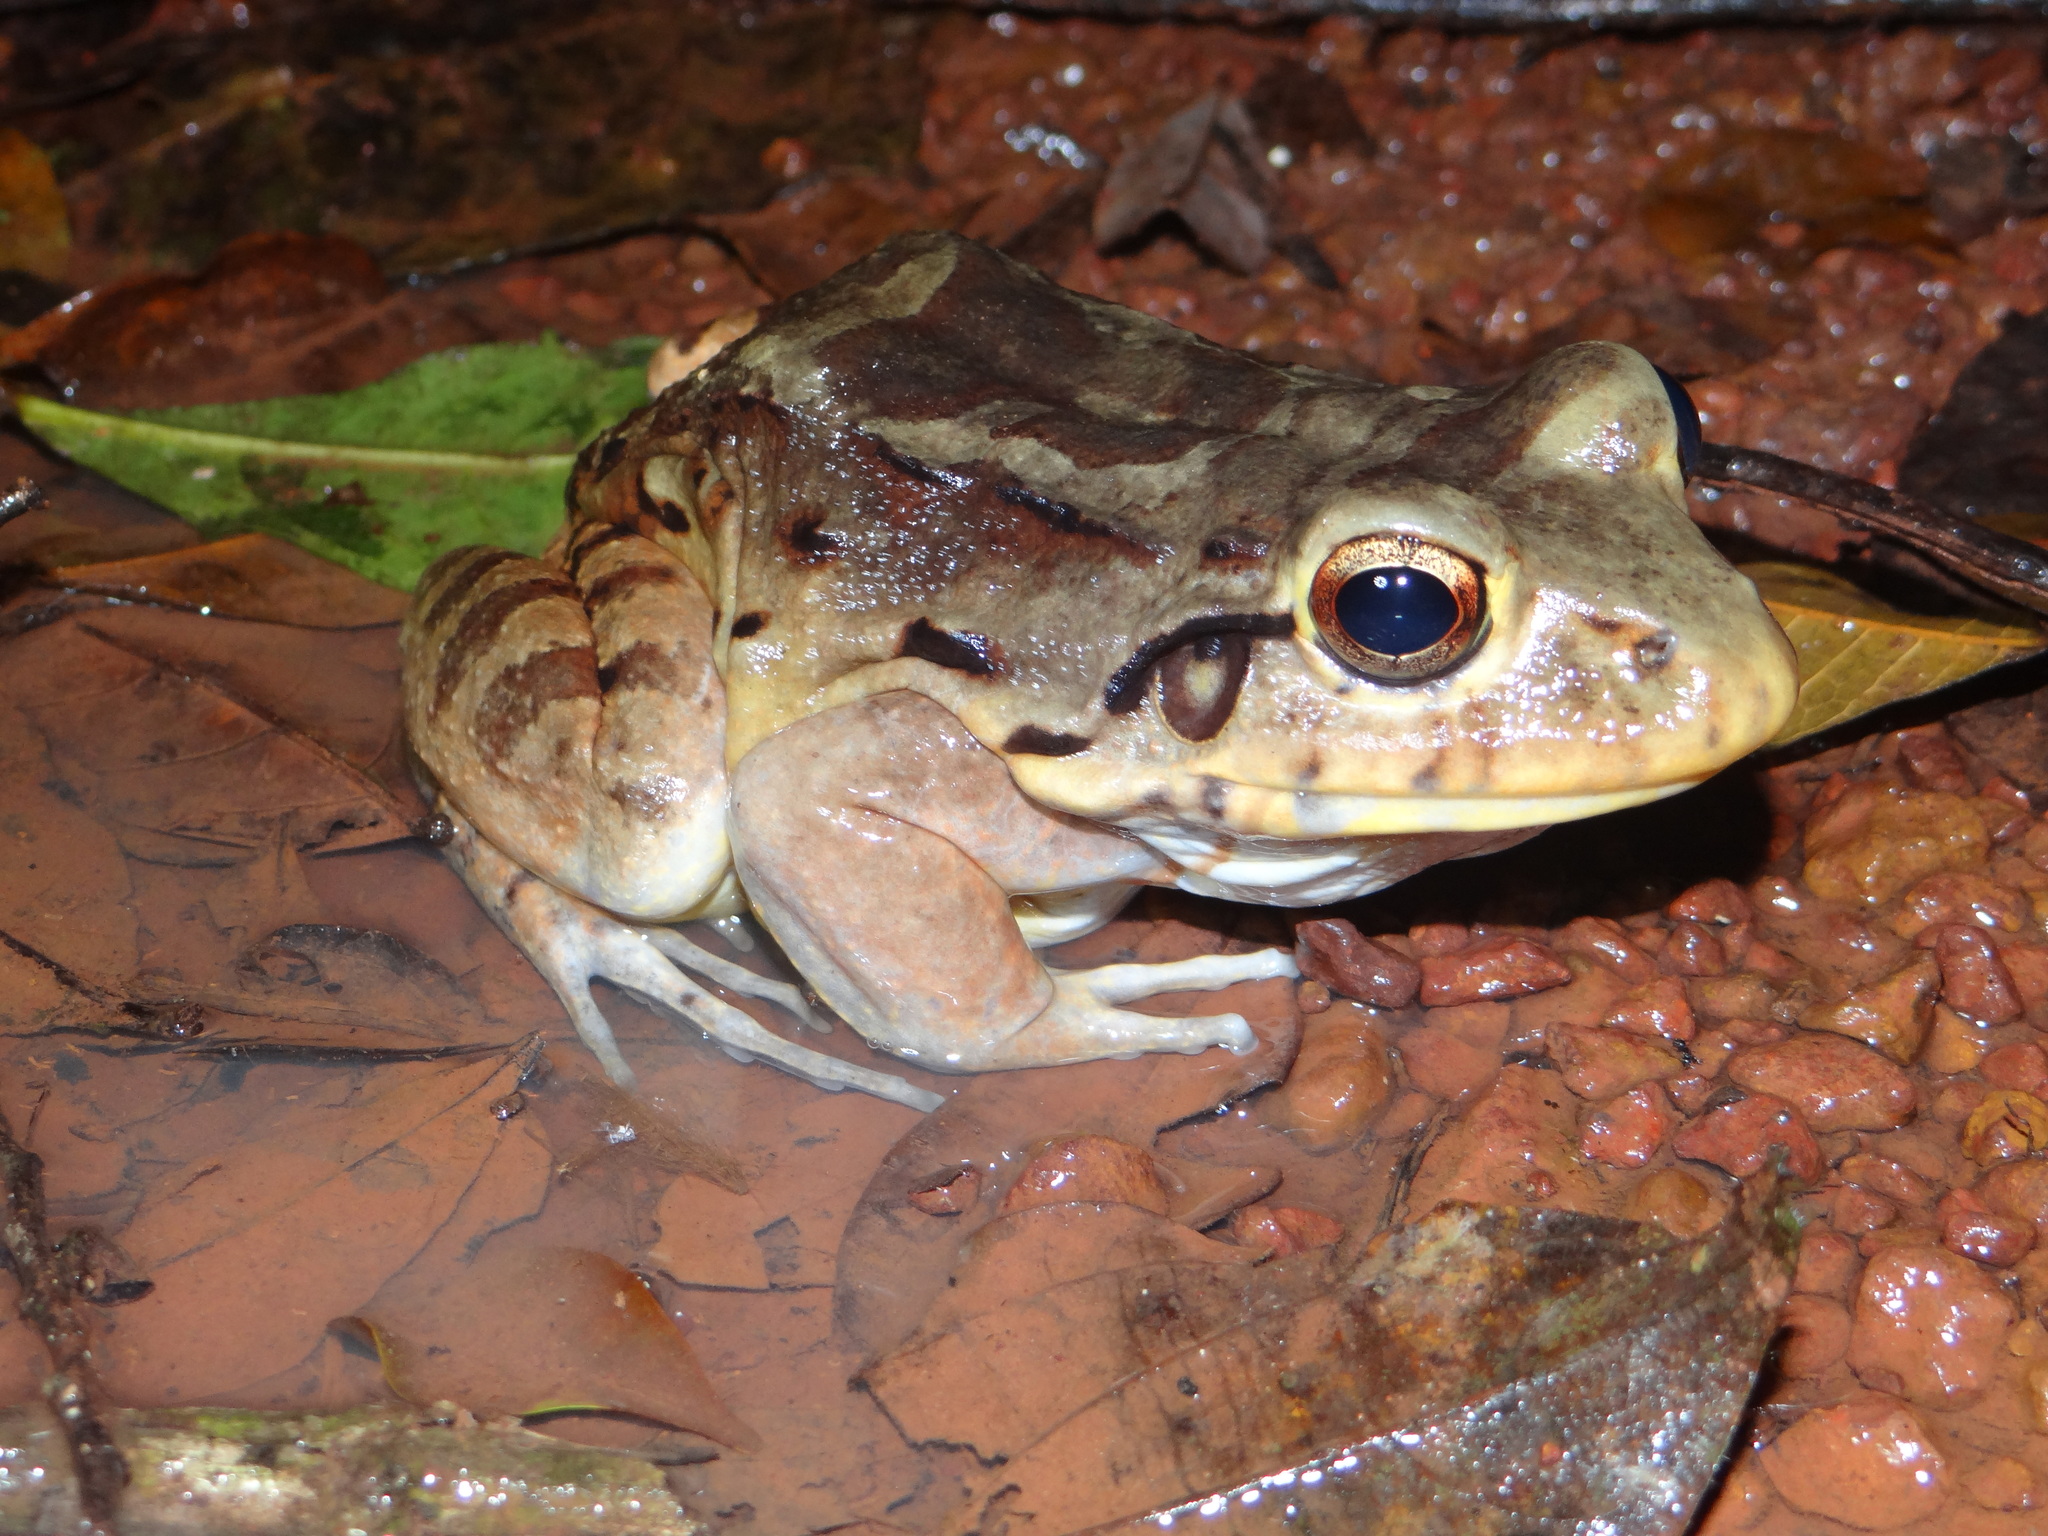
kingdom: Animalia
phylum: Chordata
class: Amphibia
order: Anura
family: Leptodactylidae
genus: Leptodactylus
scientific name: Leptodactylus knudseni
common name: Knudsen's frog
